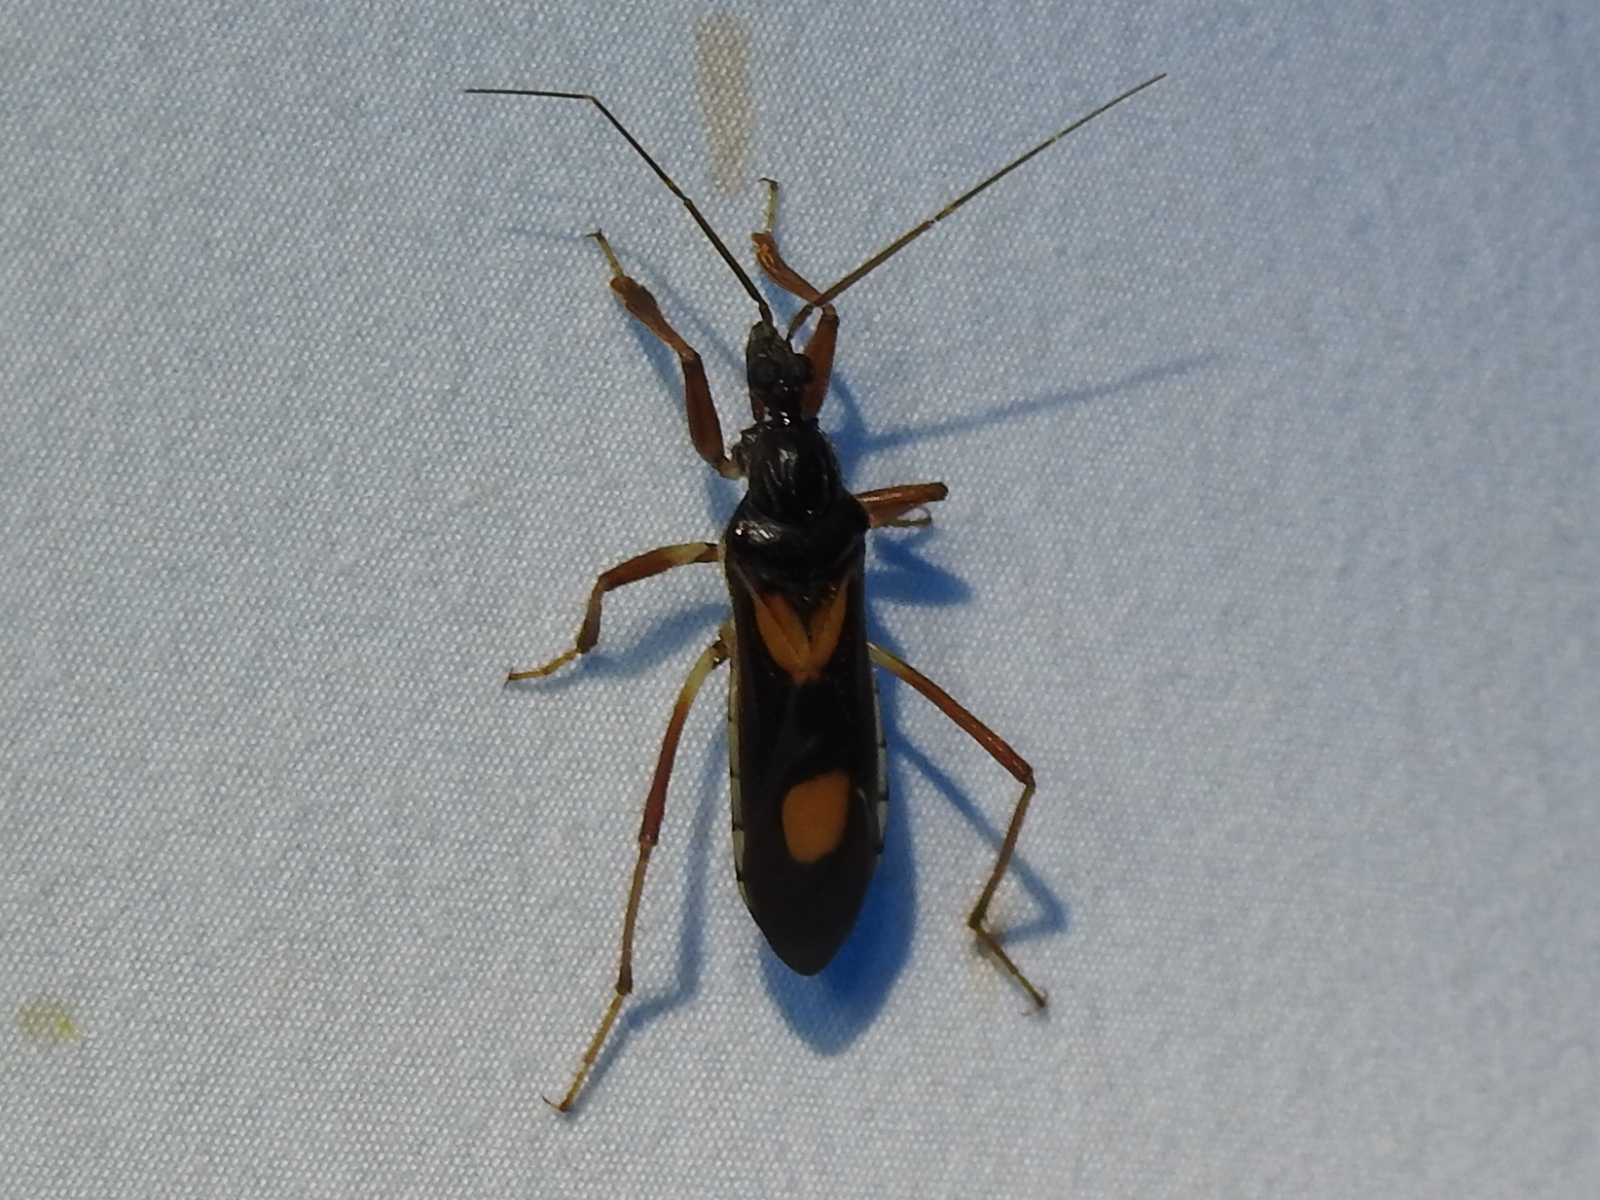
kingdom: Animalia
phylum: Arthropoda
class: Insecta
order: Hemiptera
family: Reduviidae
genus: Rasahus
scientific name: Rasahus hamatus
